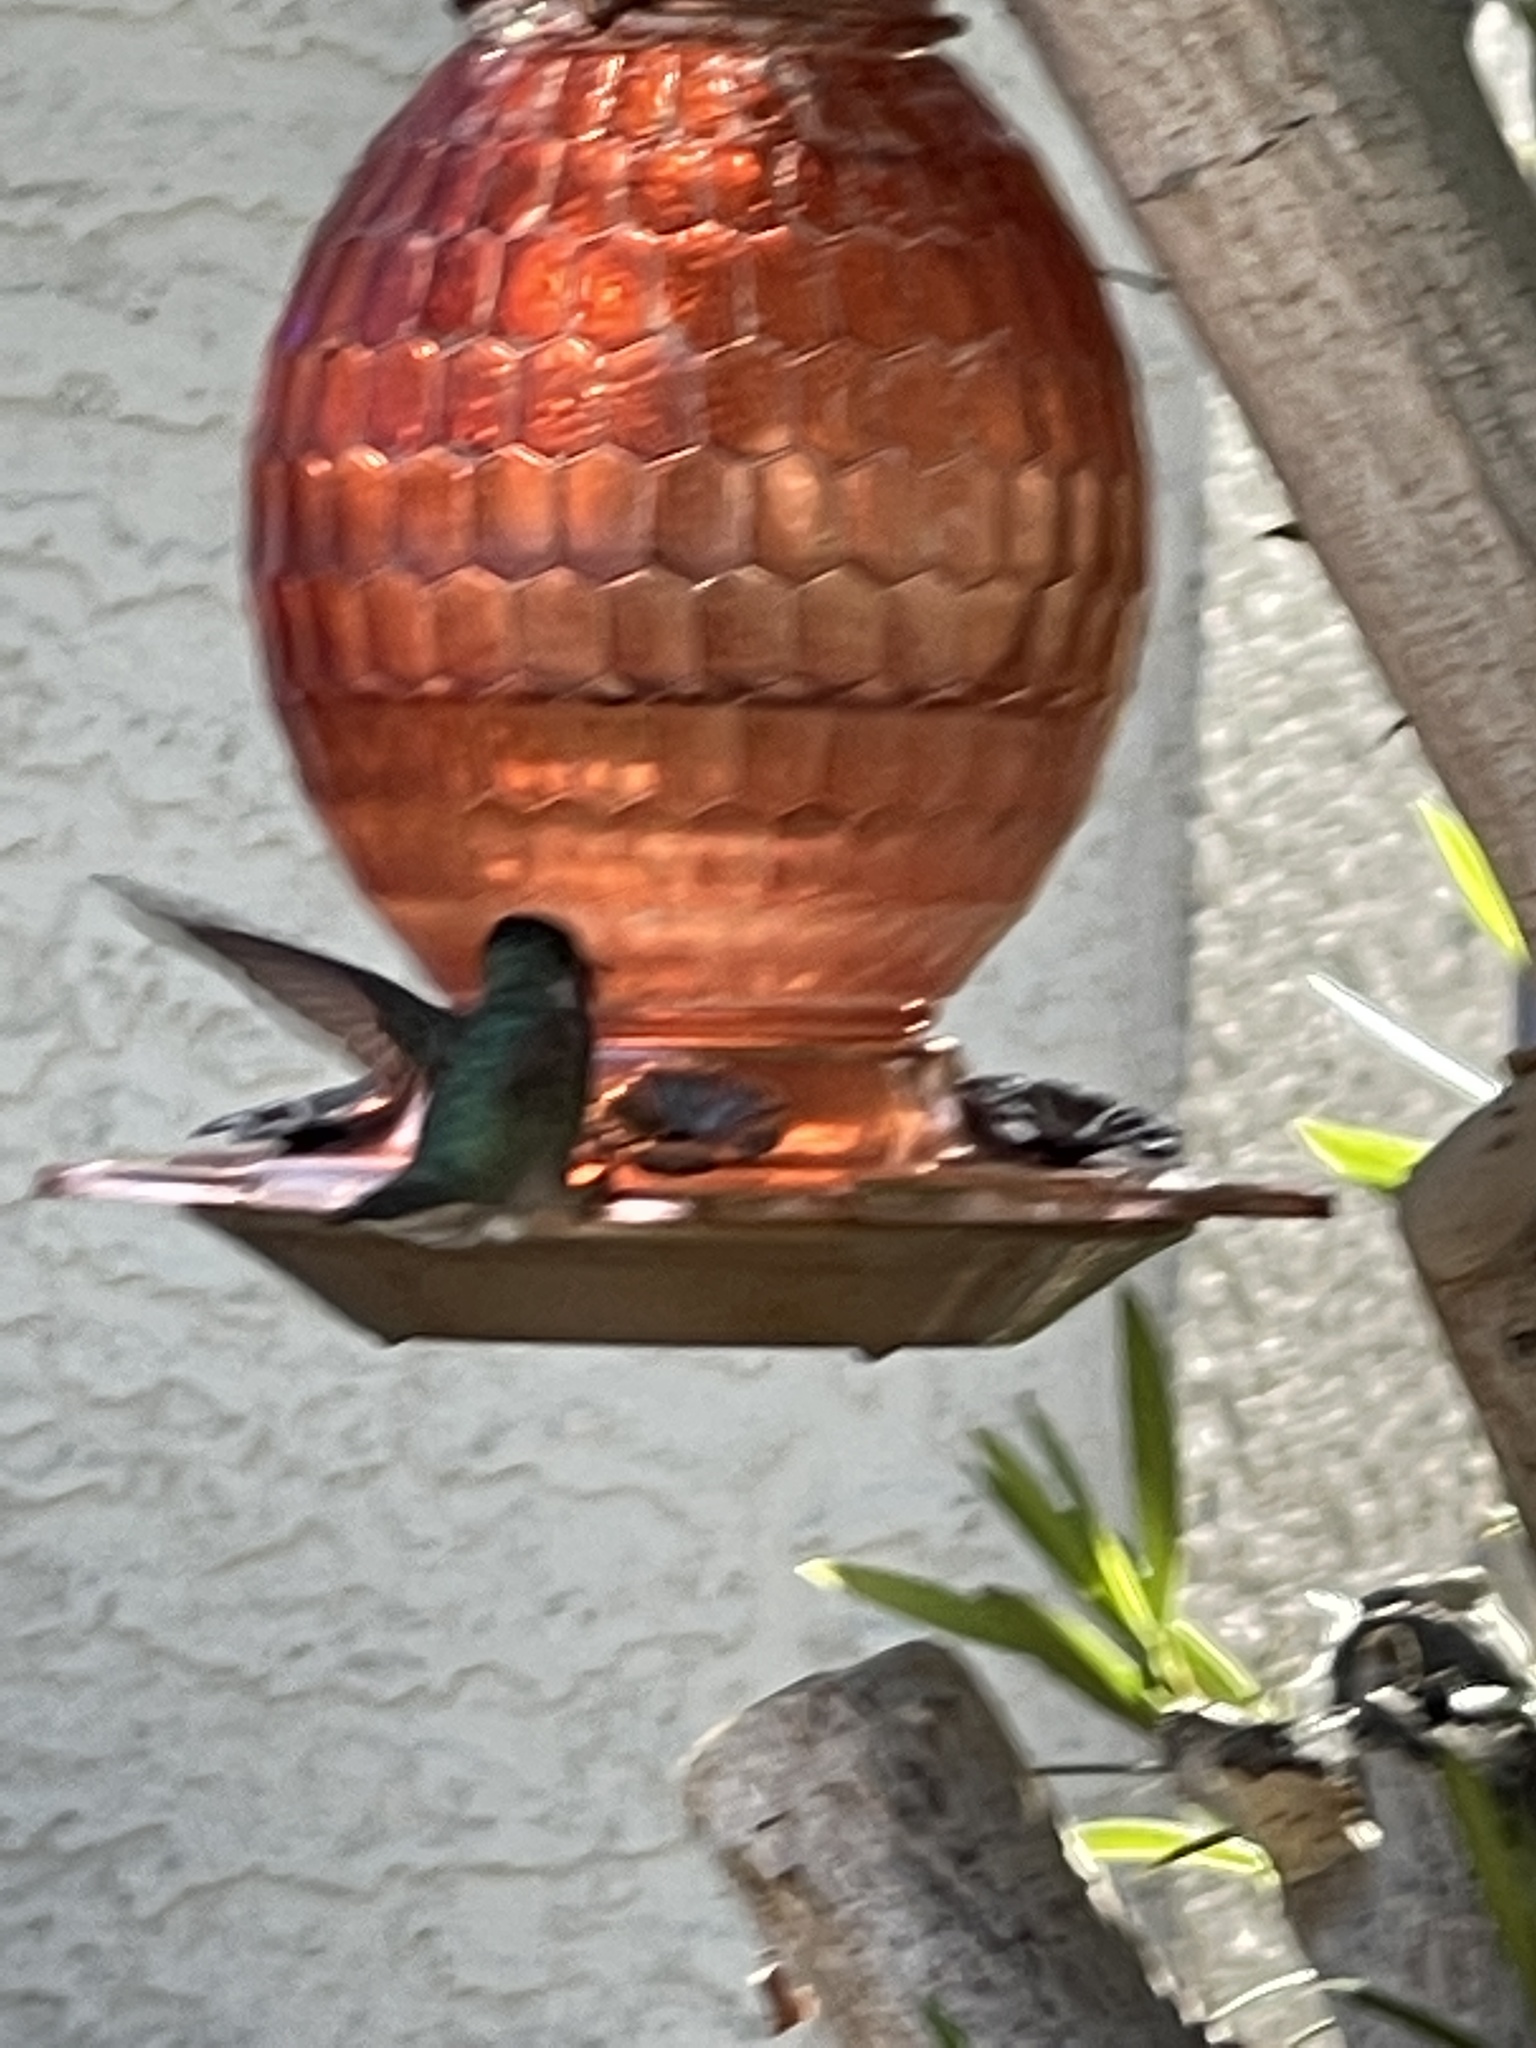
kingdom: Animalia
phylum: Chordata
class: Aves
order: Apodiformes
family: Trochilidae
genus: Calypte
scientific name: Calypte costae
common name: Costa's hummingbird
